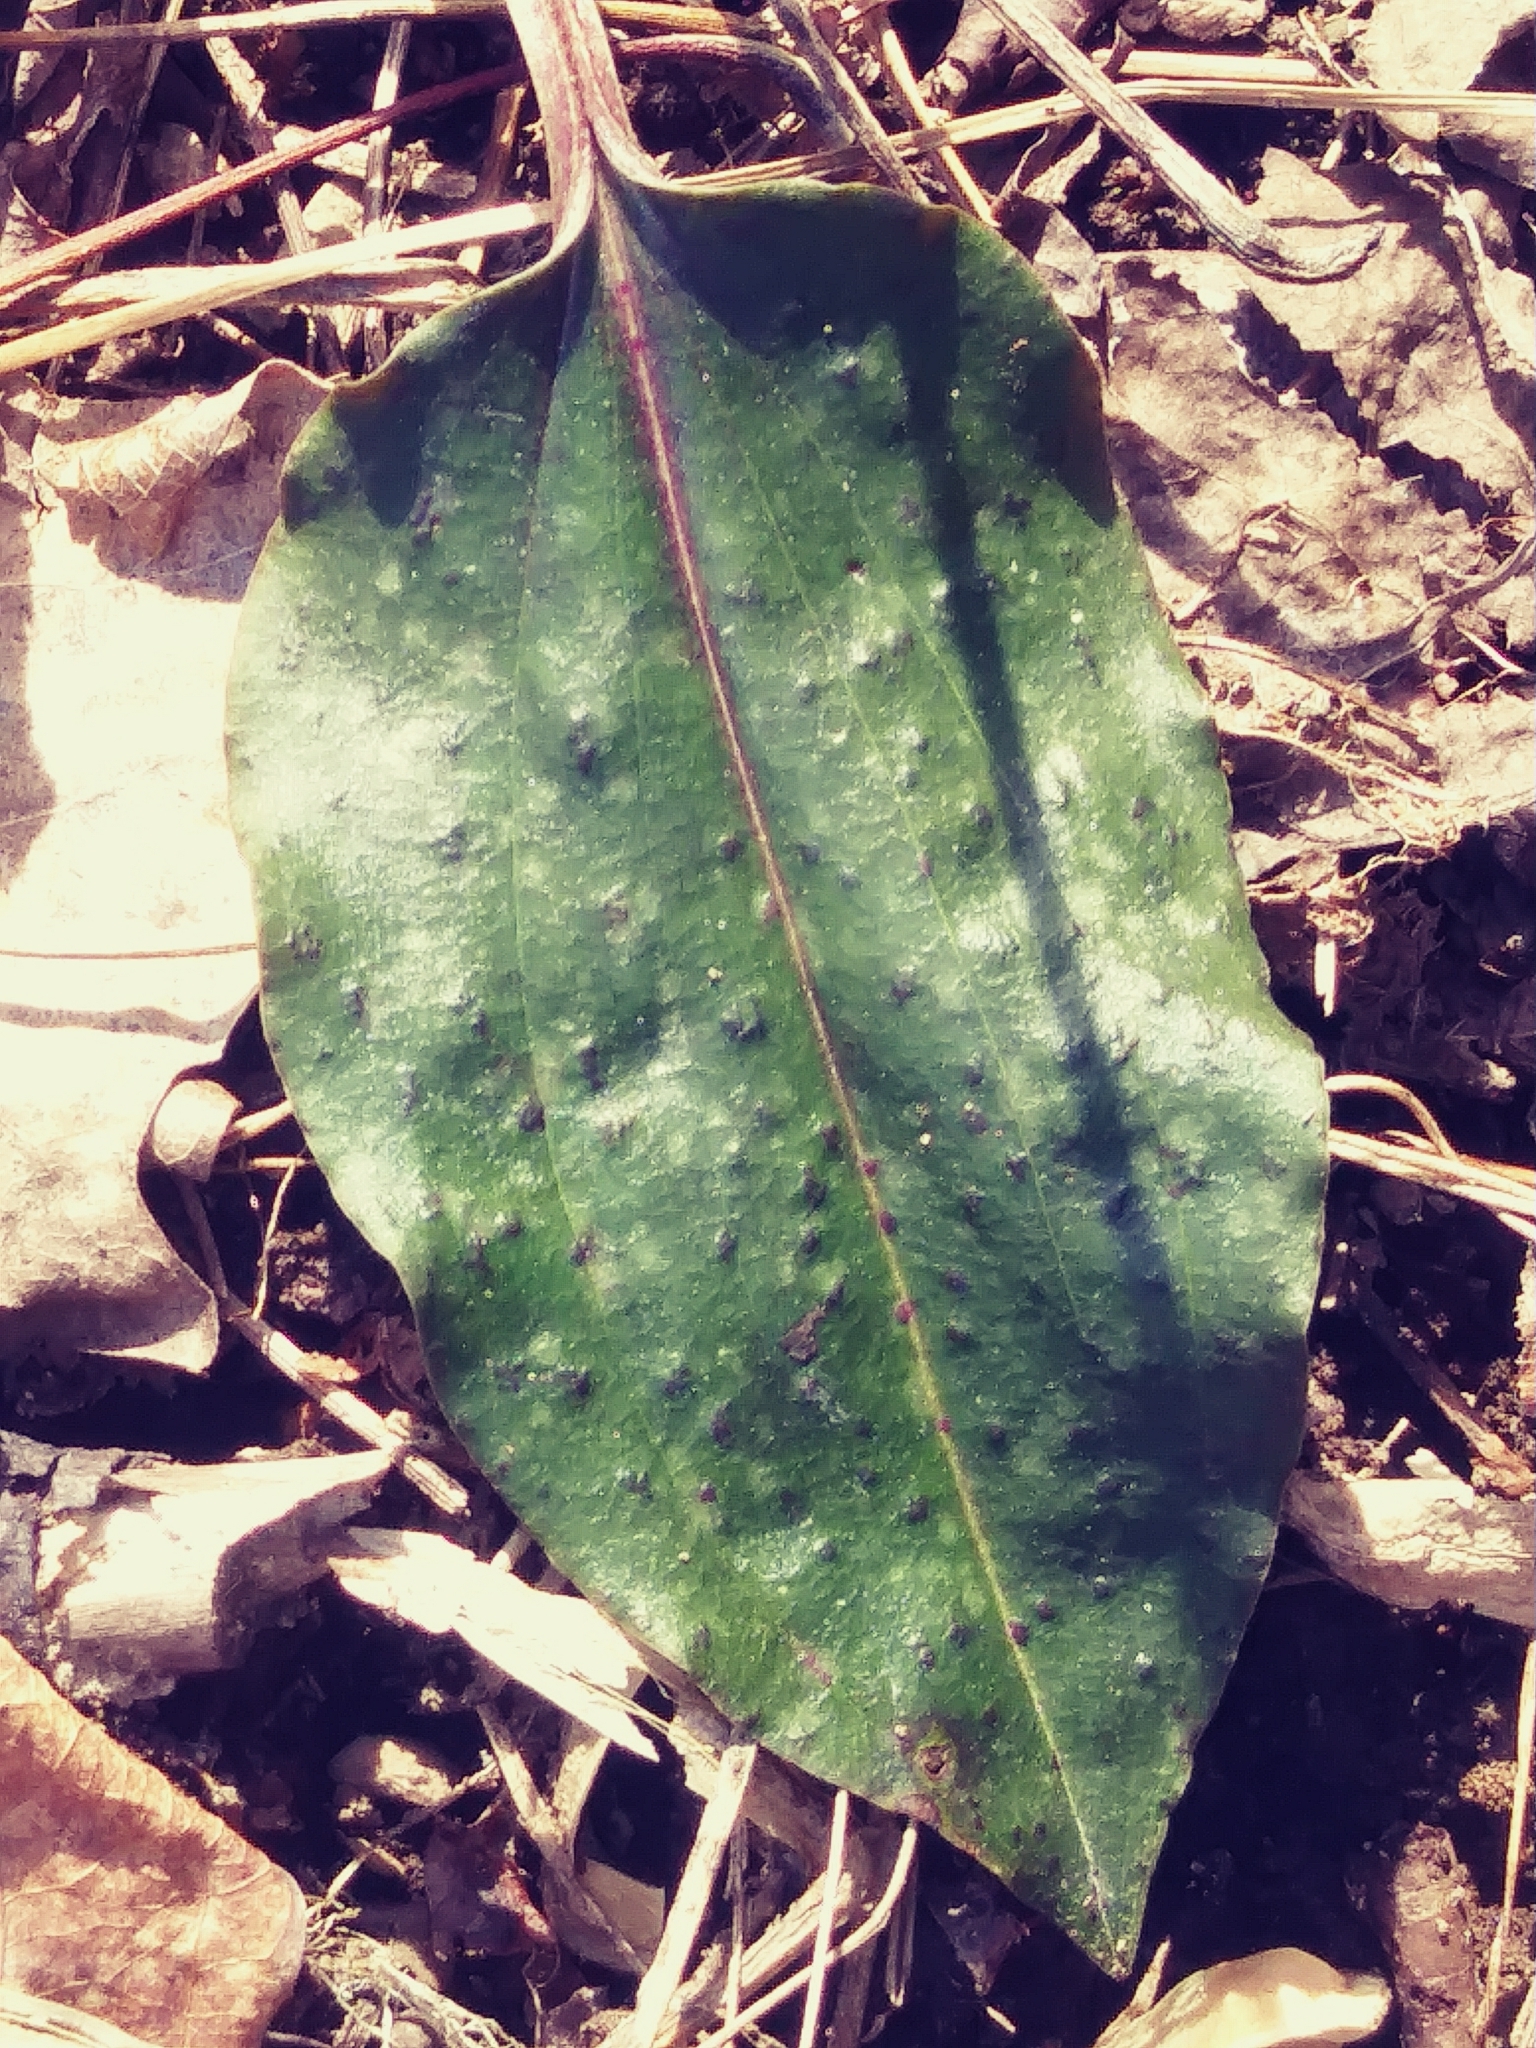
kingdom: Plantae
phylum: Tracheophyta
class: Liliopsida
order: Asparagales
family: Orchidaceae
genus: Tipularia
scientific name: Tipularia discolor
